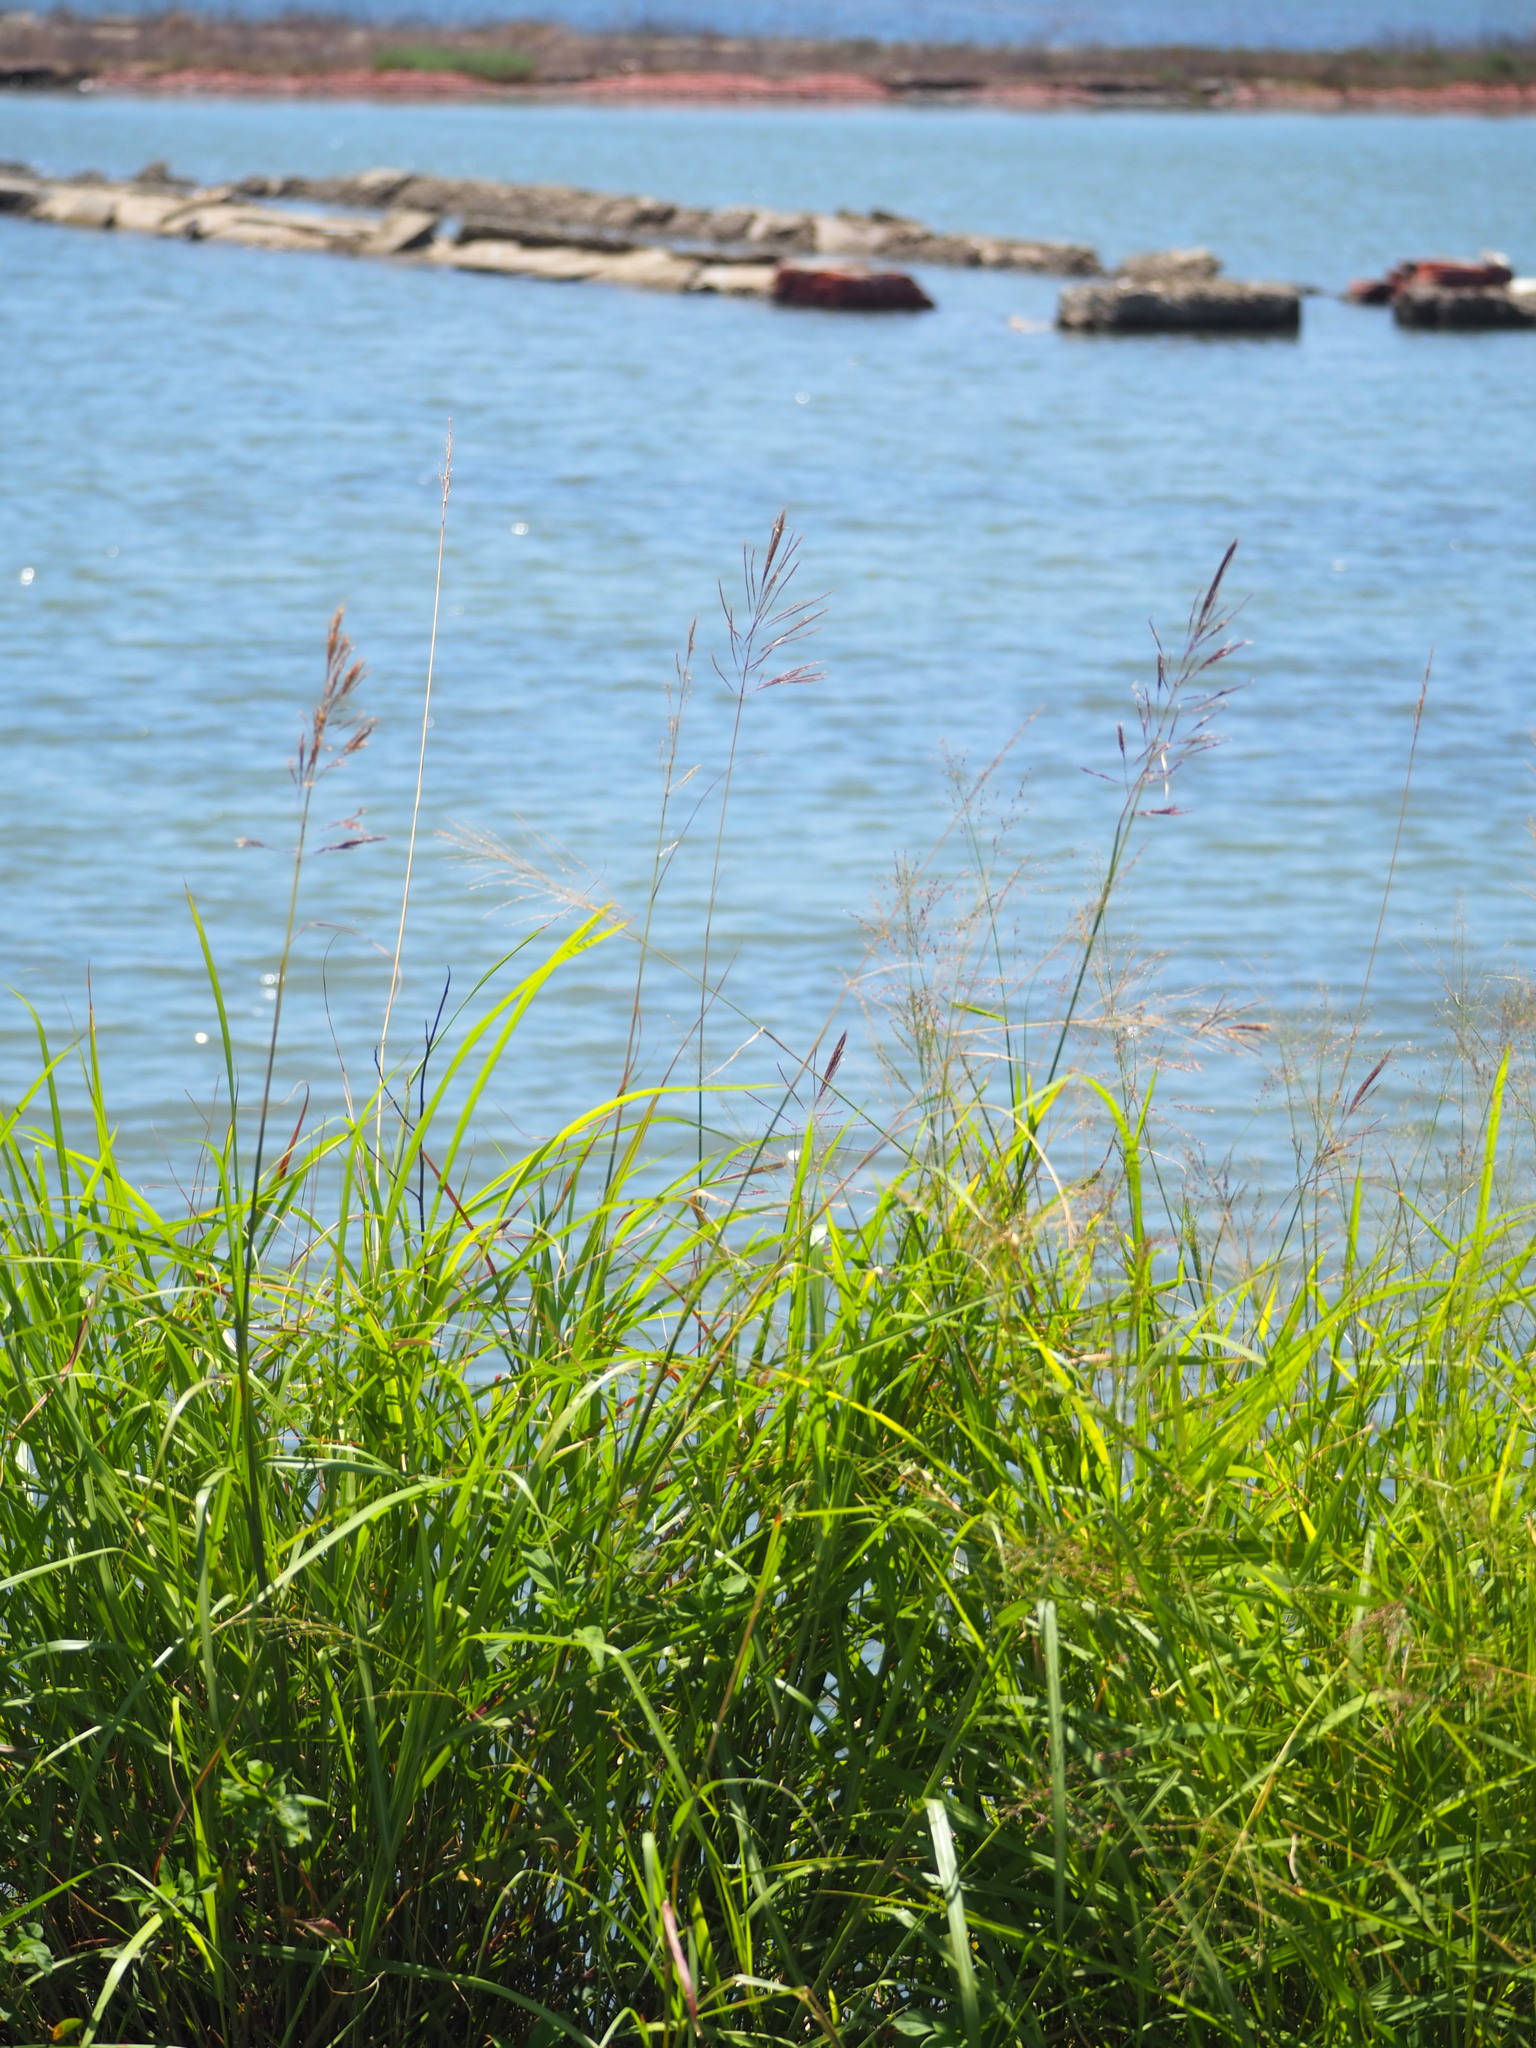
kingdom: Plantae
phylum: Tracheophyta
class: Liliopsida
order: Poales
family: Poaceae
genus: Bothriochloa
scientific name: Bothriochloa glabra
